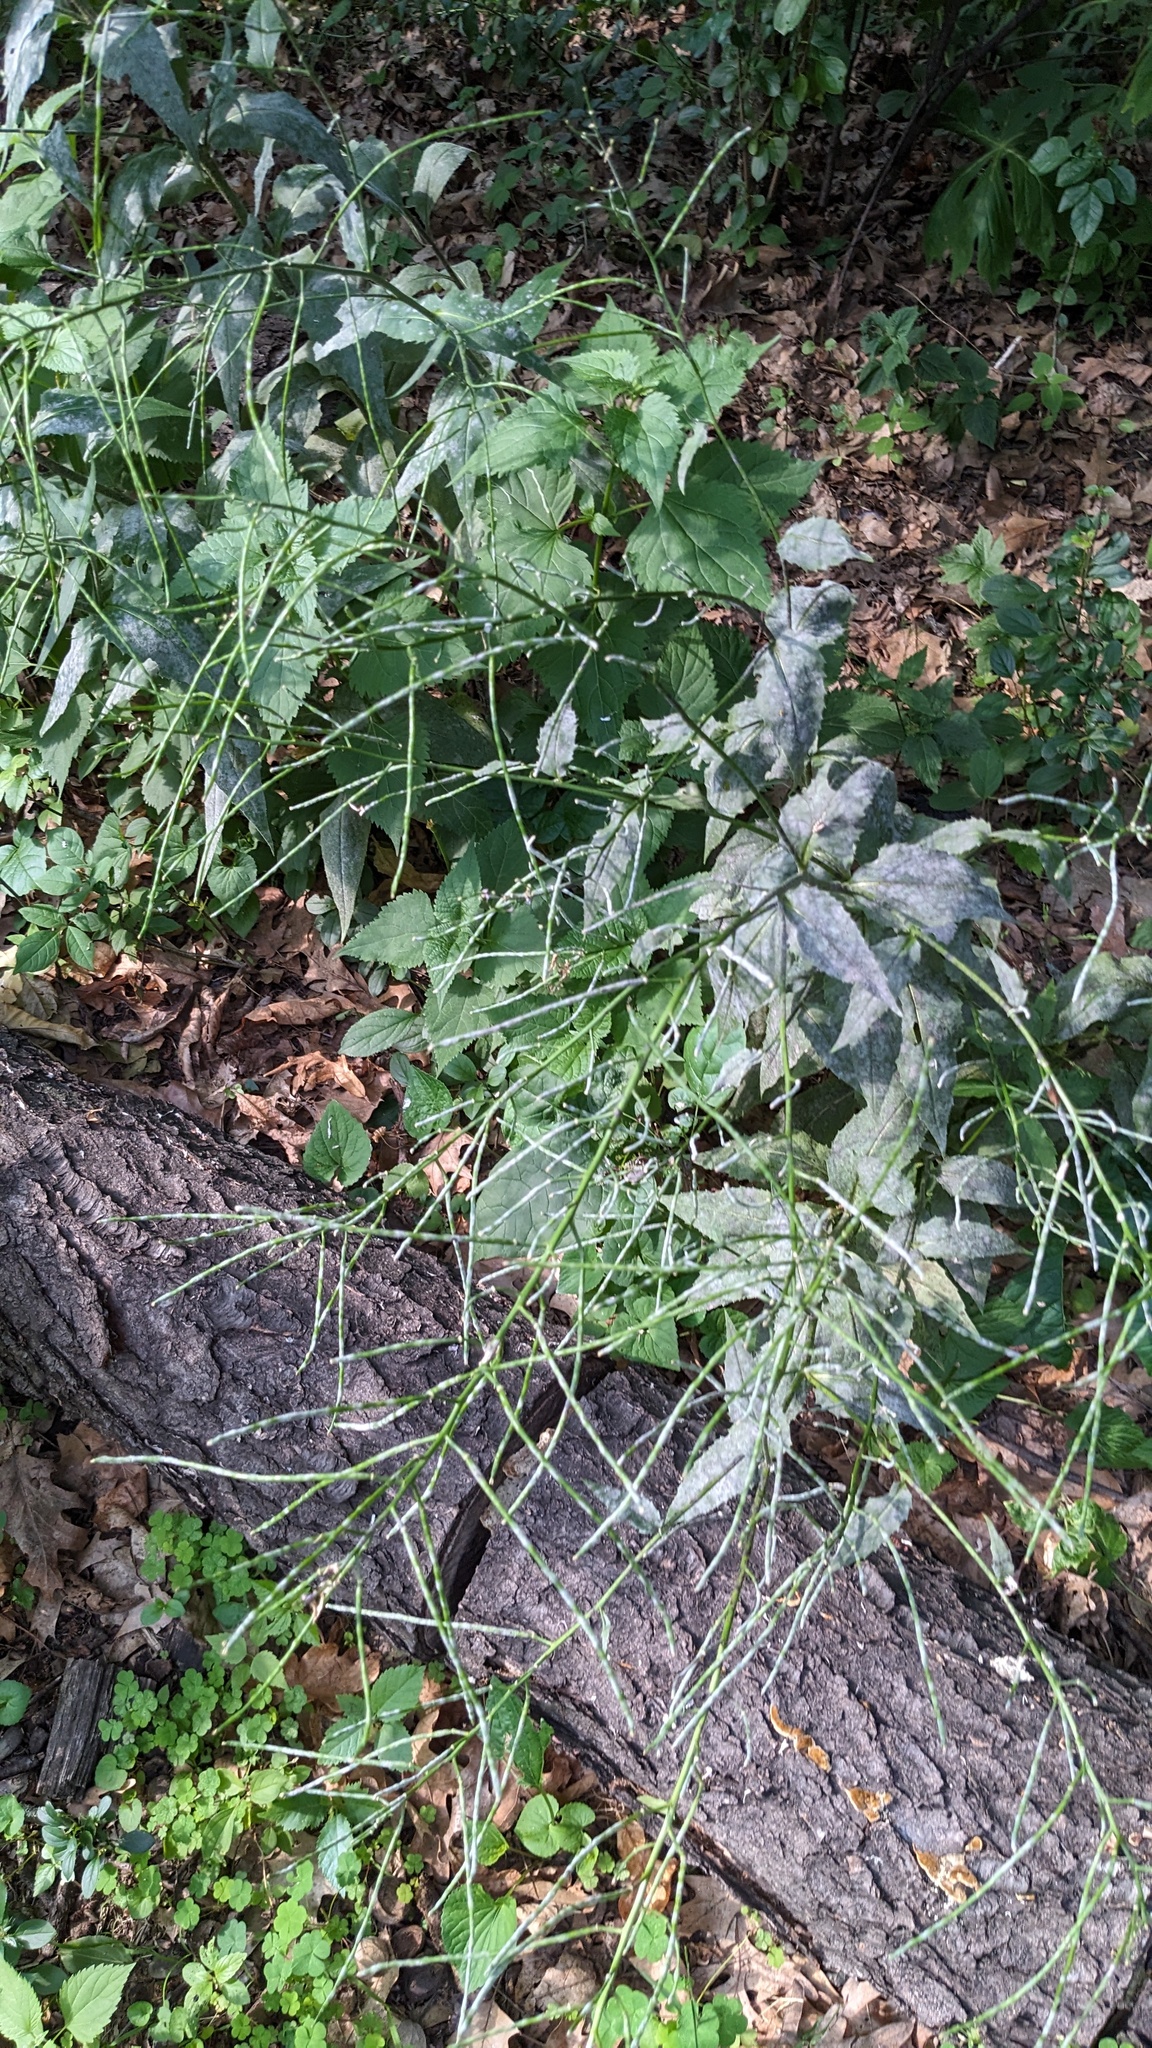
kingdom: Fungi
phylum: Ascomycota
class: Leotiomycetes
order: Helotiales
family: Erysiphaceae
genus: Erysiphe
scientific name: Erysiphe cruciferarum
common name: Brassica powdery mildew
